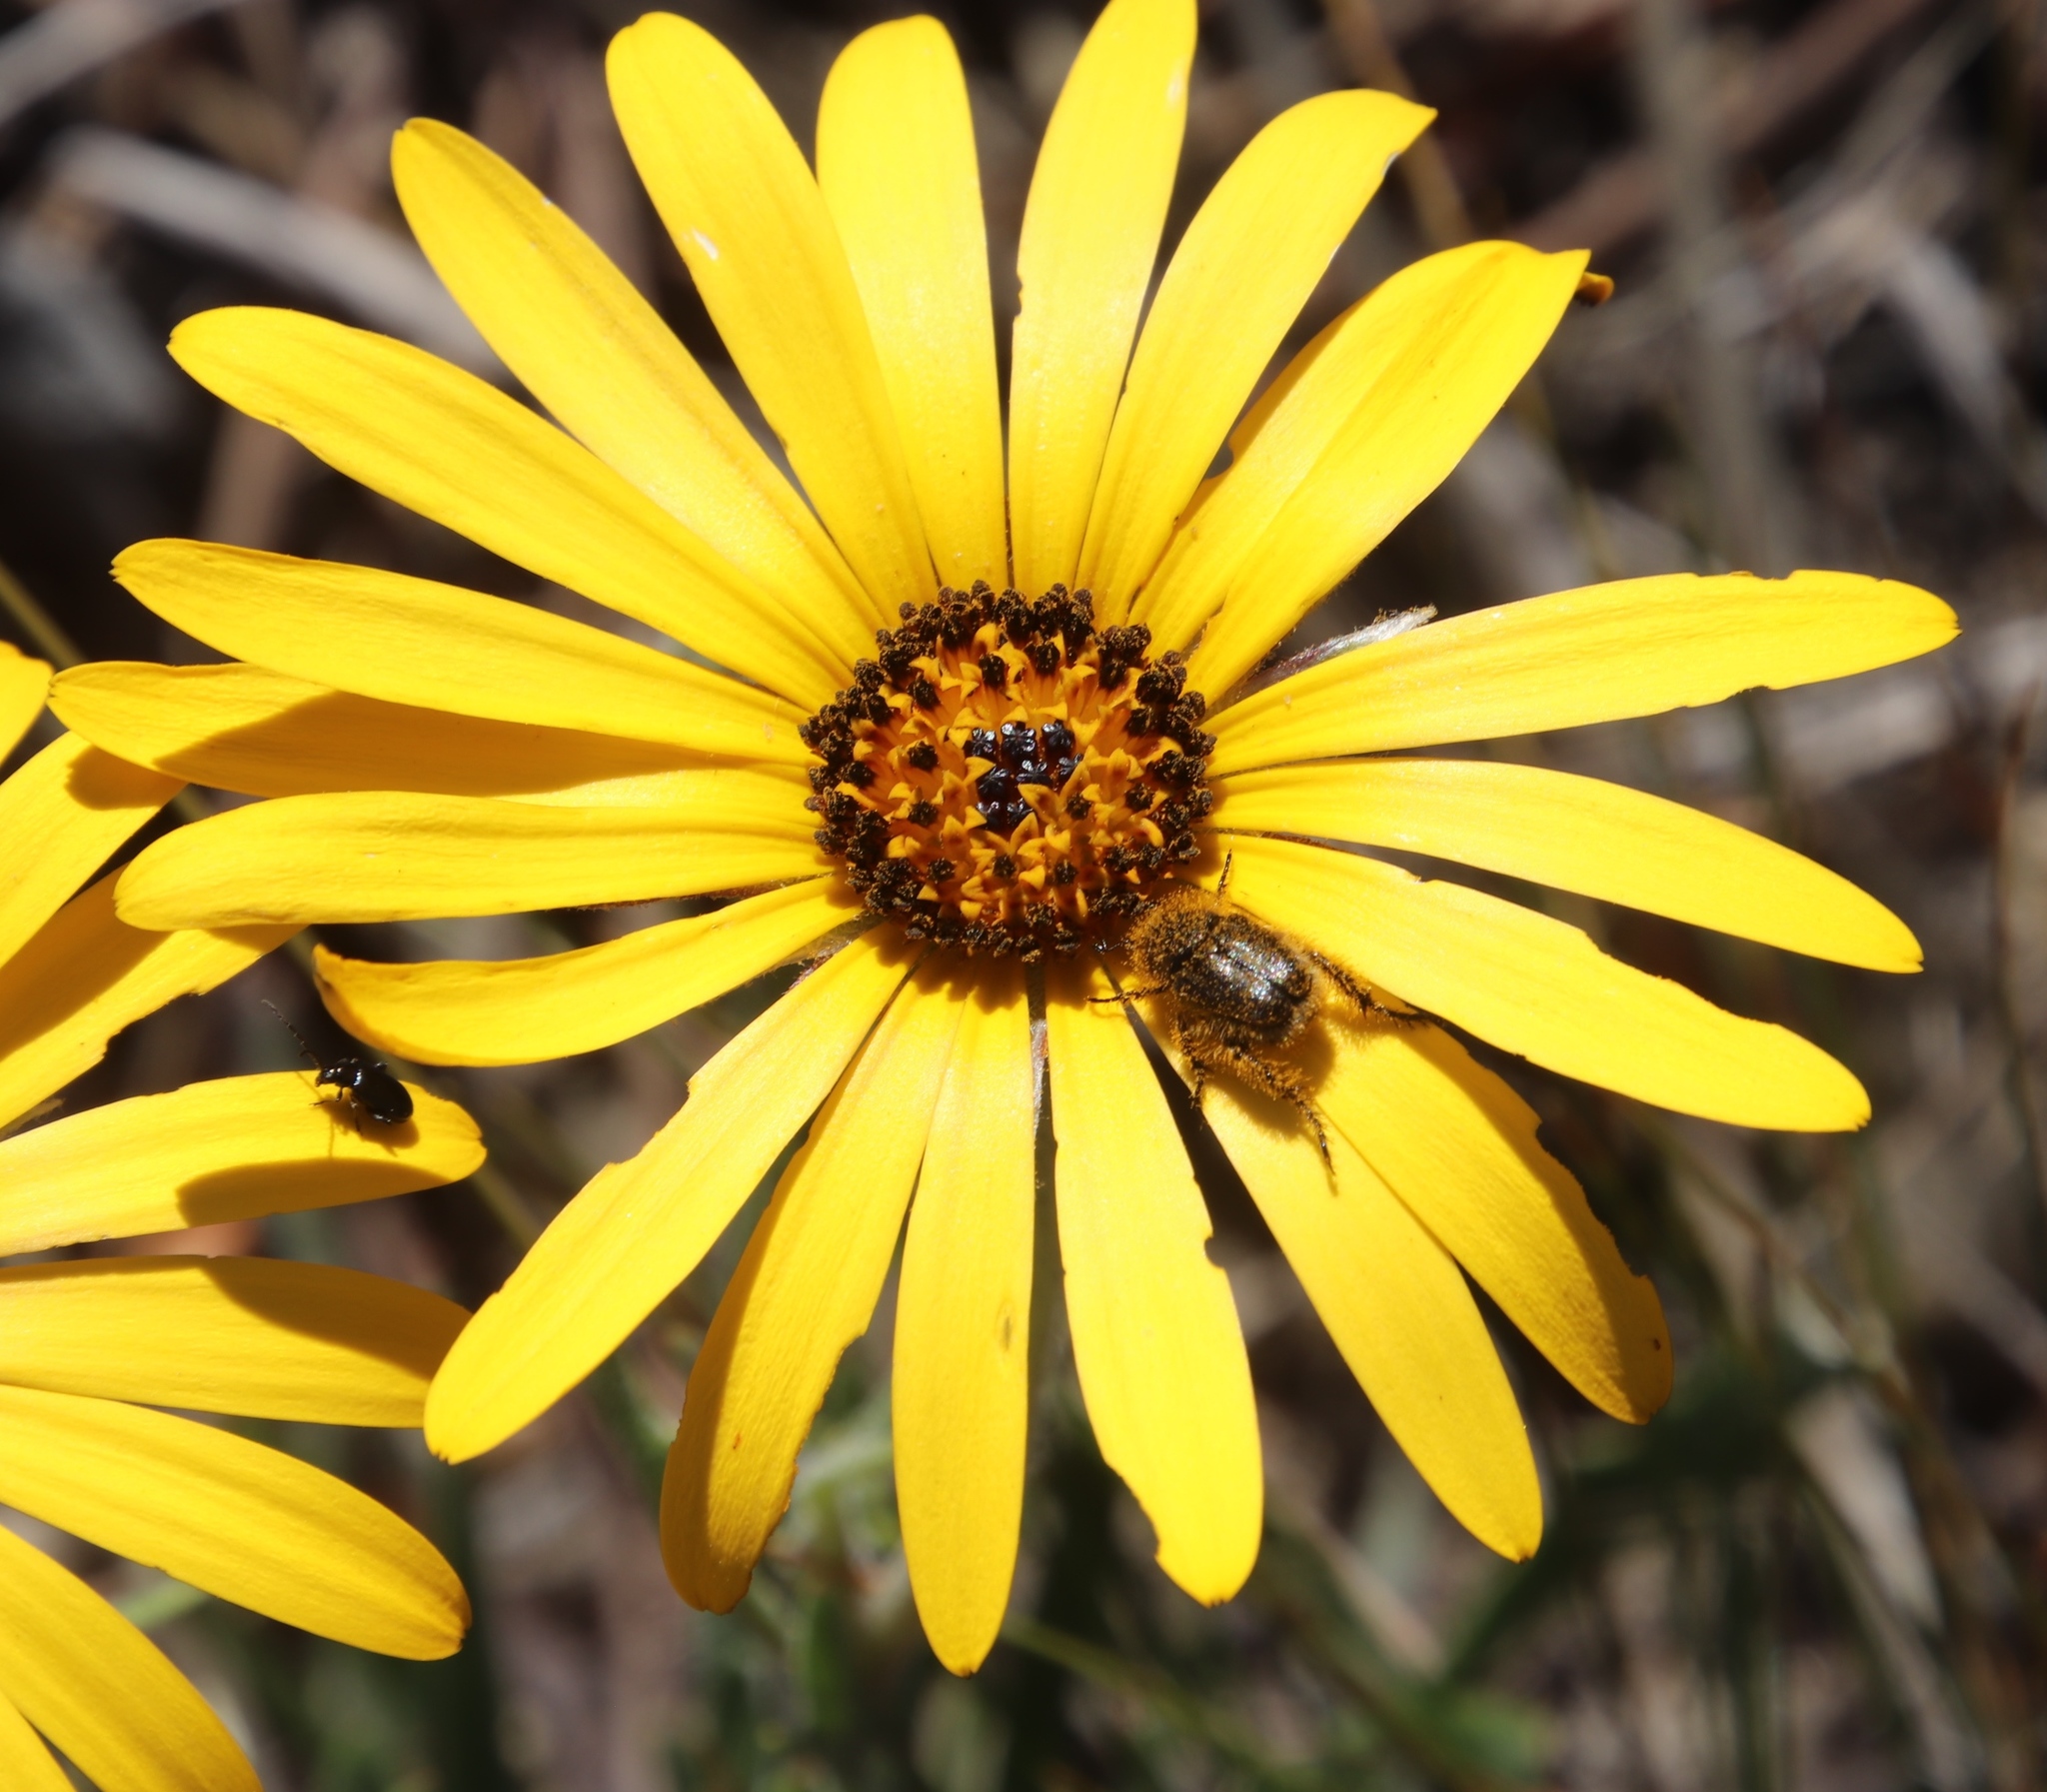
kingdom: Plantae
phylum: Tracheophyta
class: Magnoliopsida
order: Asterales
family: Asteraceae
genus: Dimorphotheca
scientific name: Dimorphotheca nudicaulis
